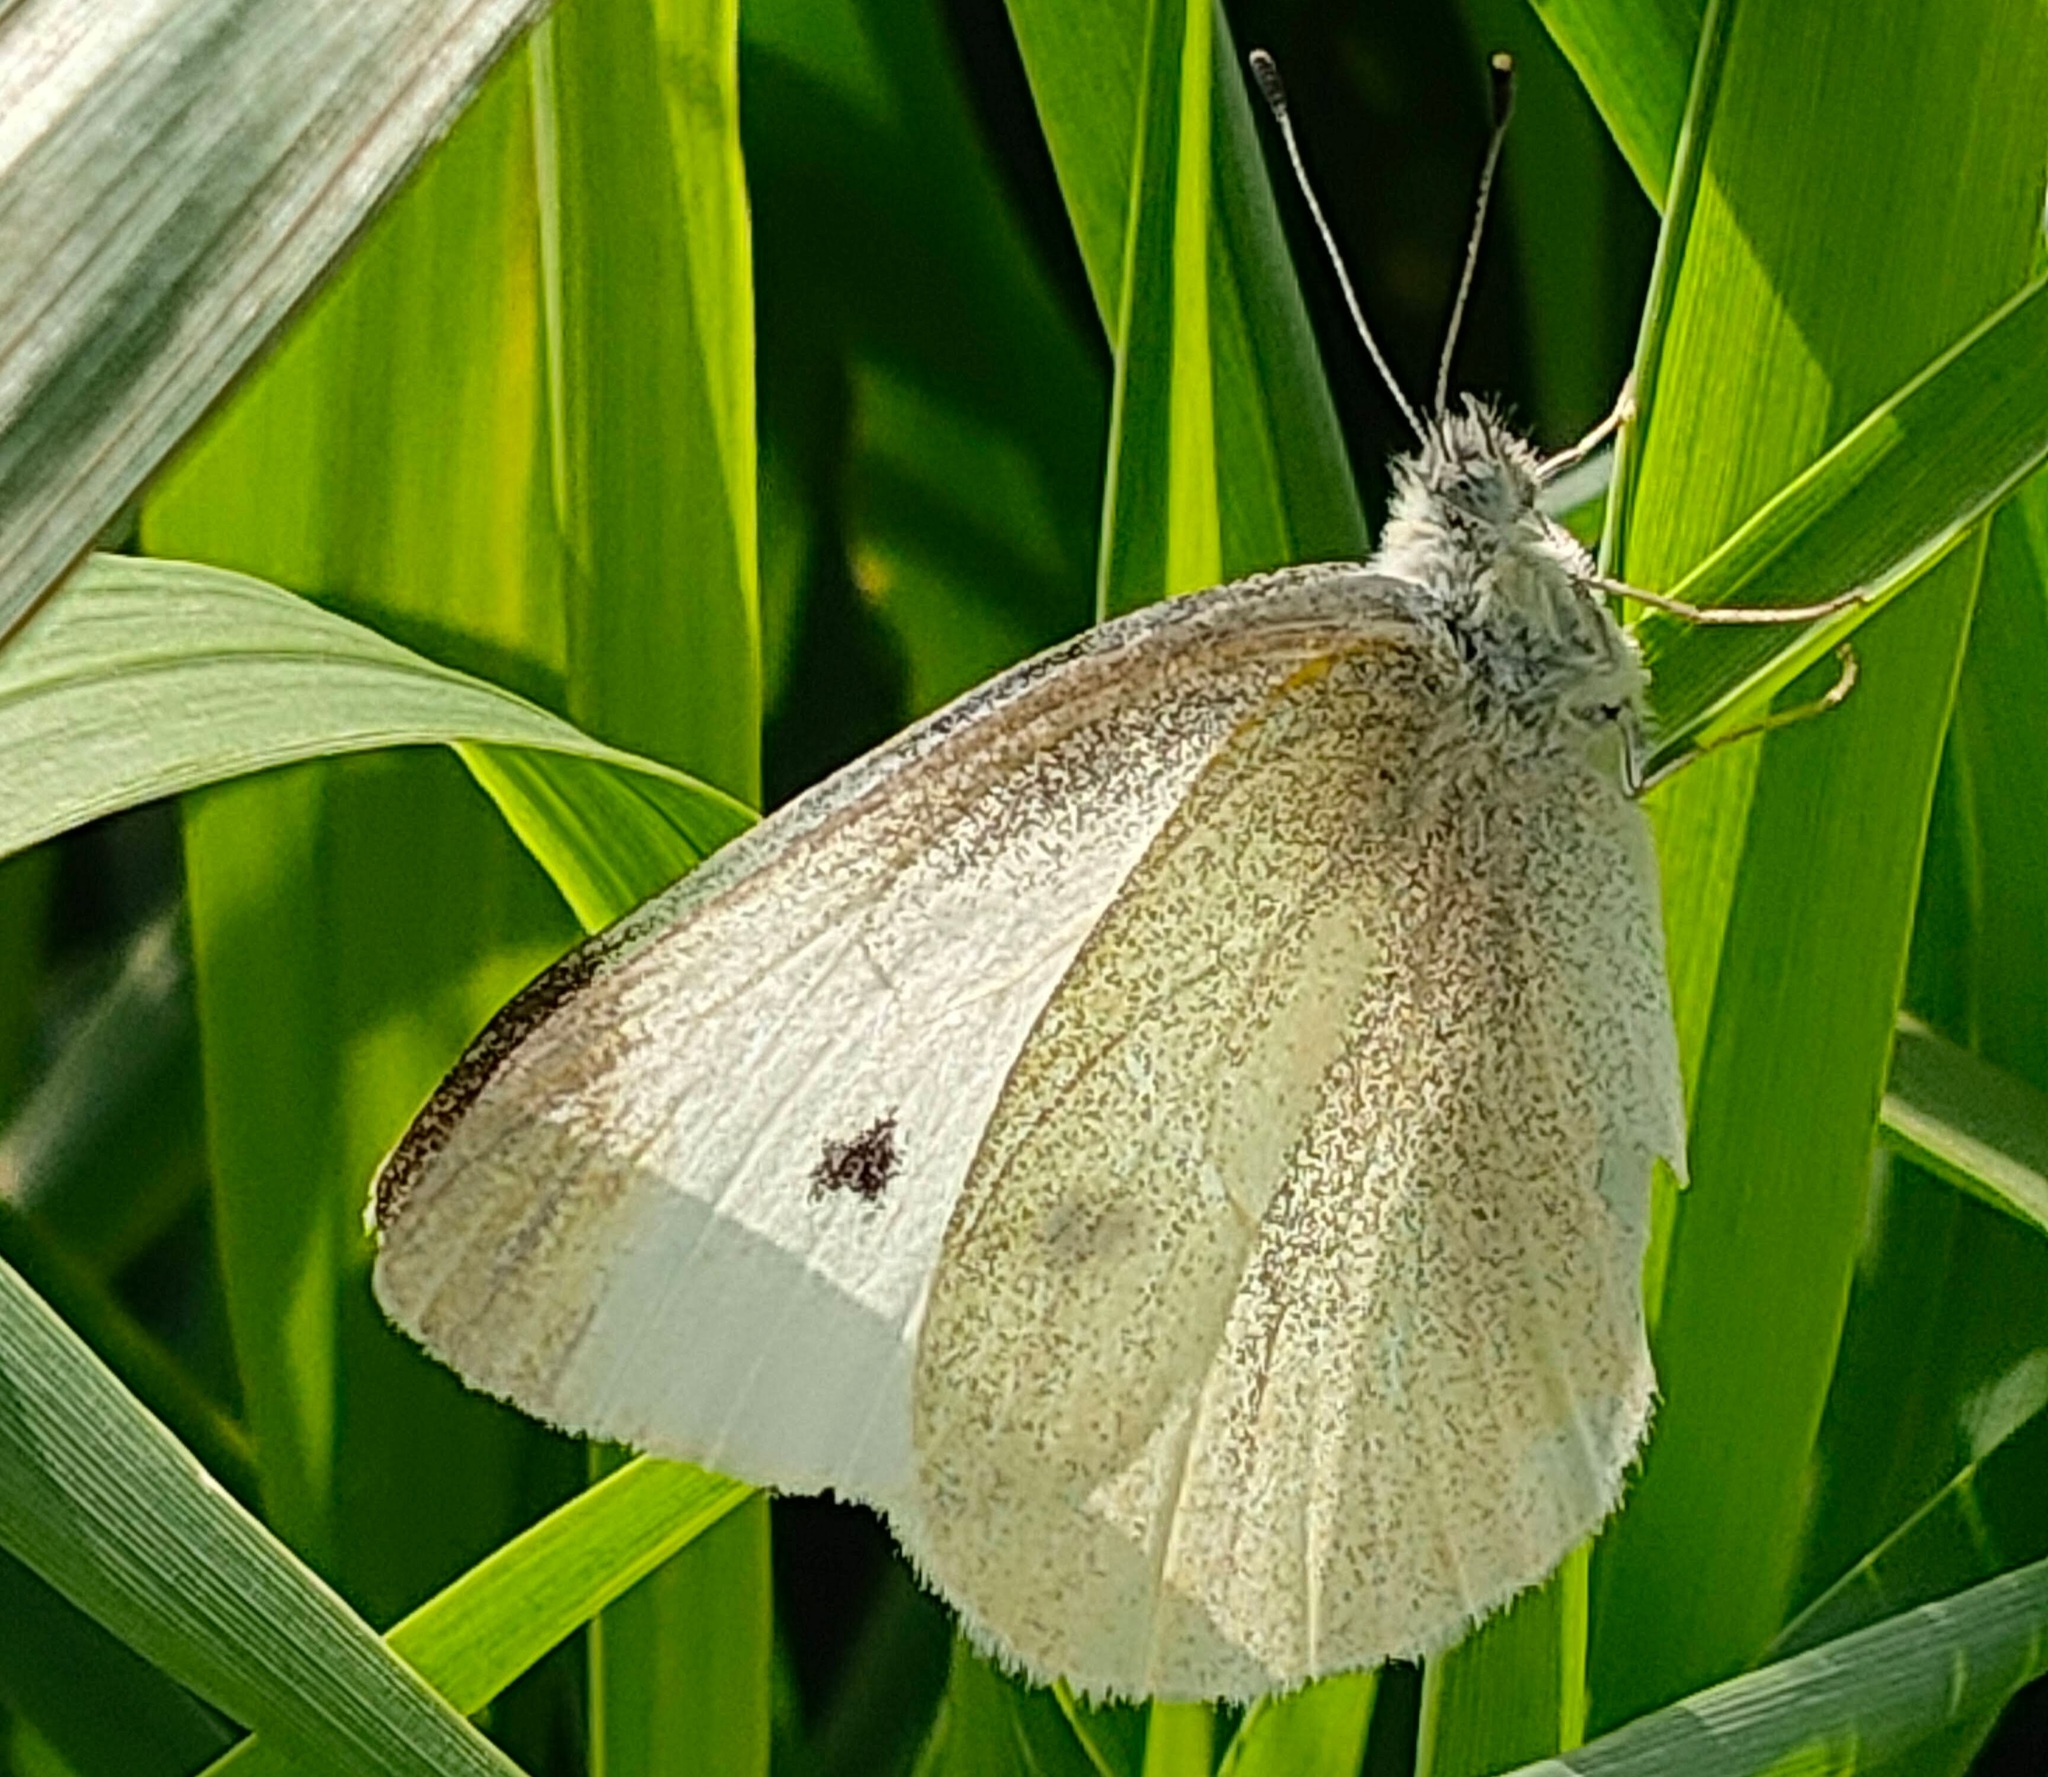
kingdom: Animalia
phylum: Arthropoda
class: Insecta
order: Lepidoptera
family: Pieridae
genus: Pieris
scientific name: Pieris rapae
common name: Small white
